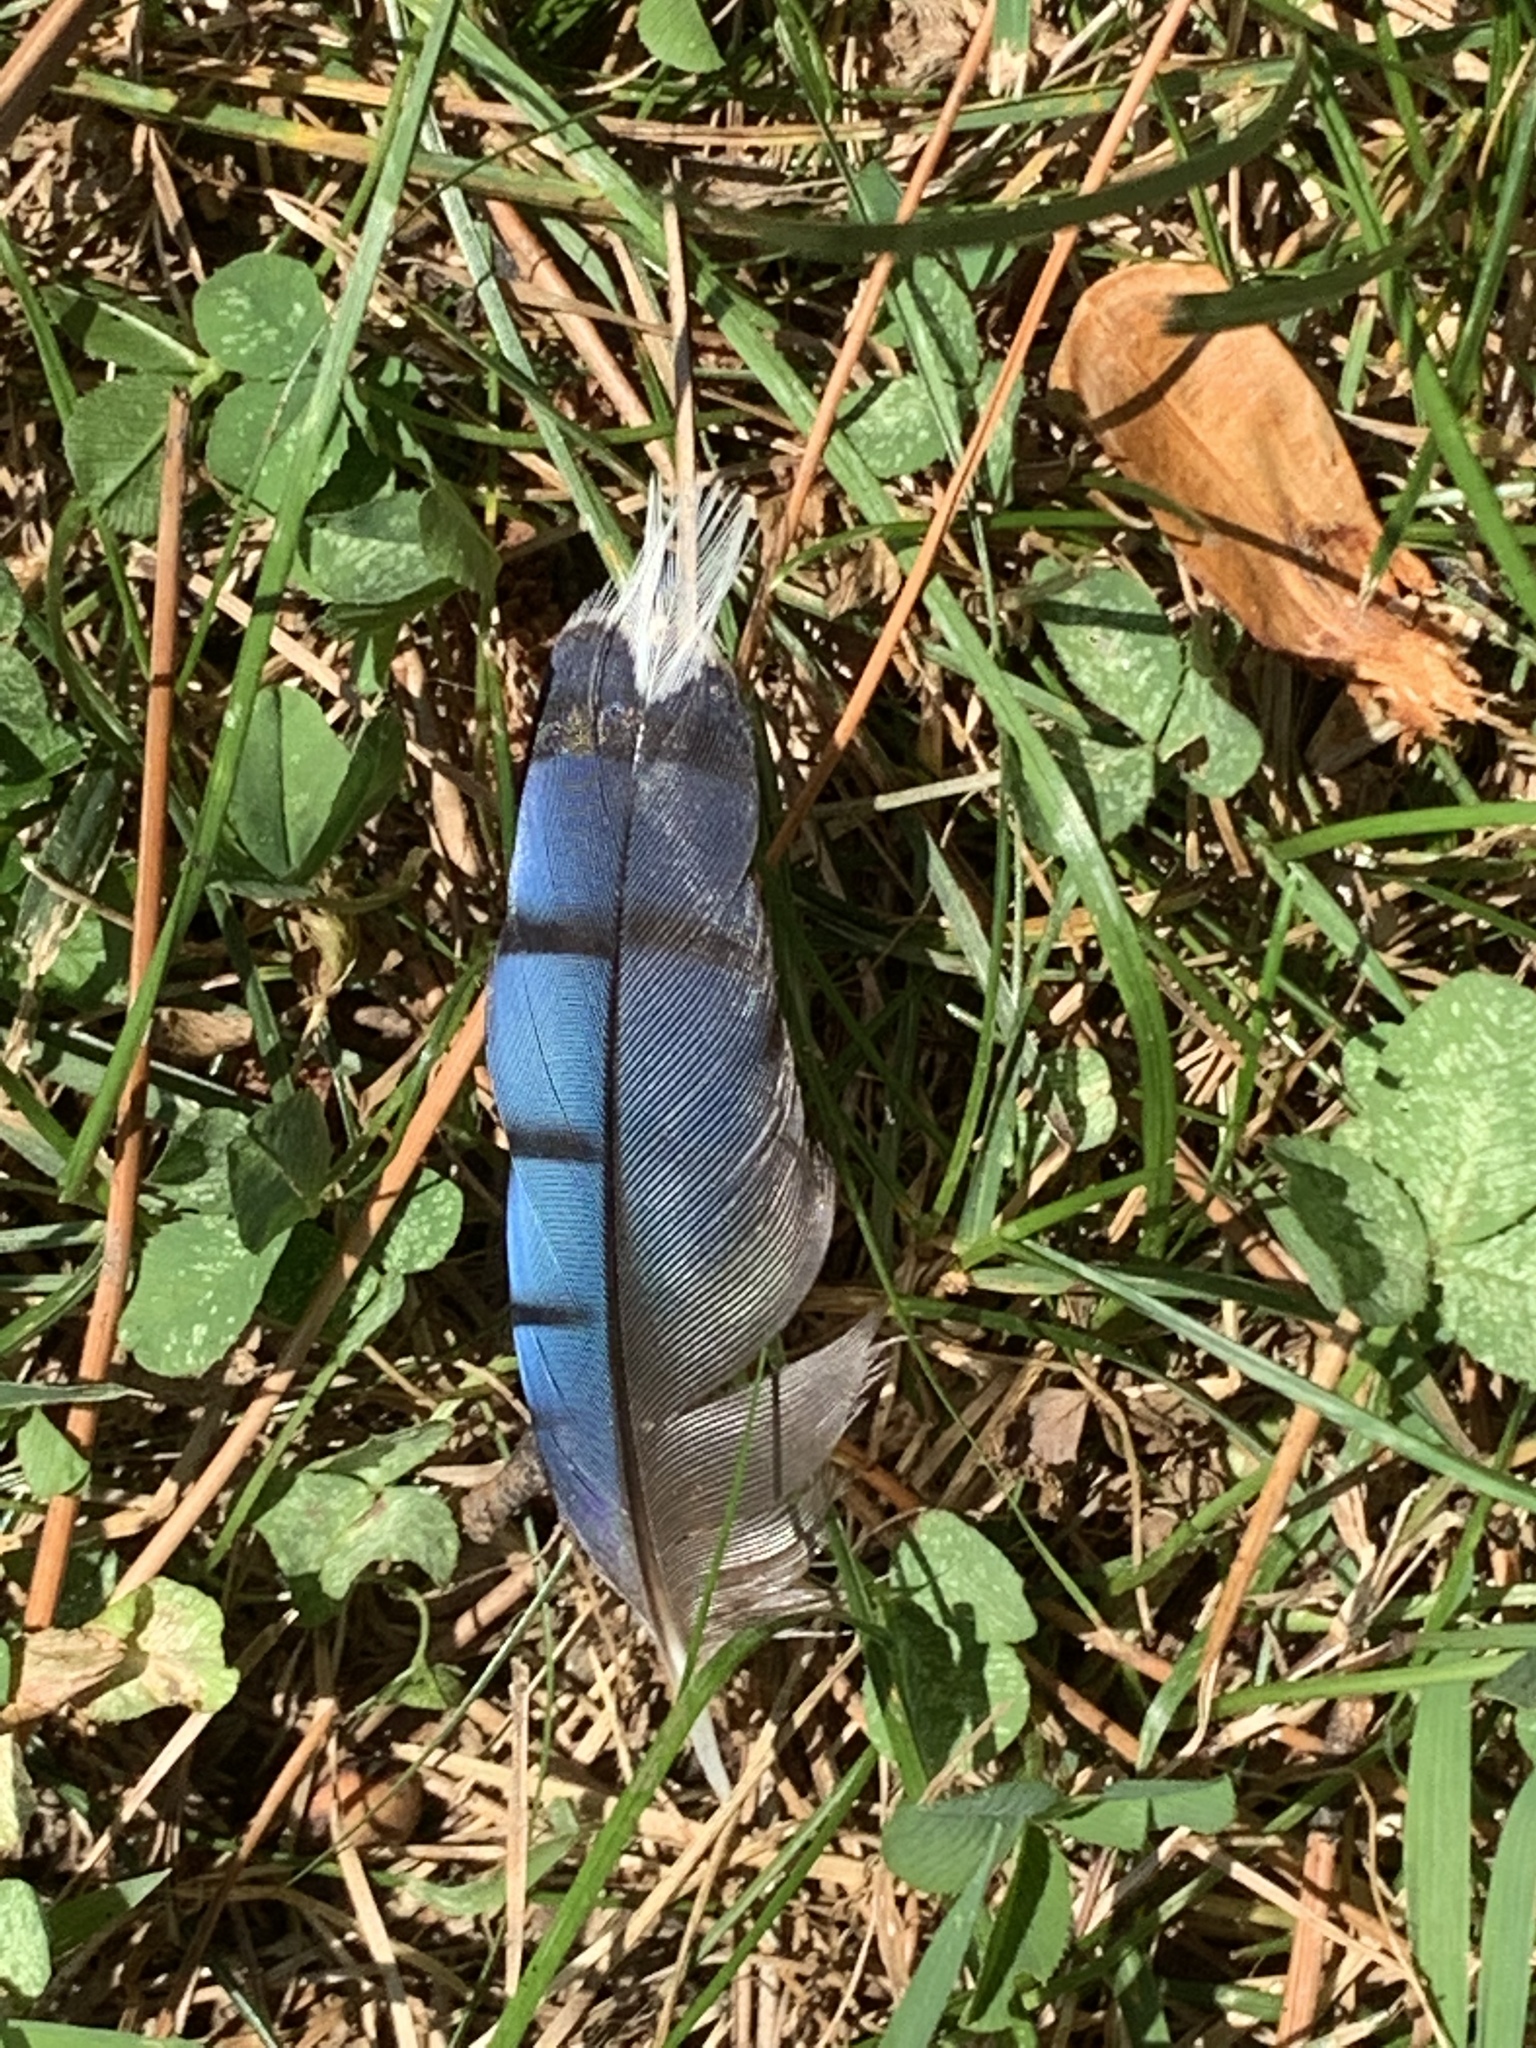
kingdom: Animalia
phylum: Chordata
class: Aves
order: Passeriformes
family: Corvidae
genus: Cyanocitta
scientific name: Cyanocitta cristata
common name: Blue jay
